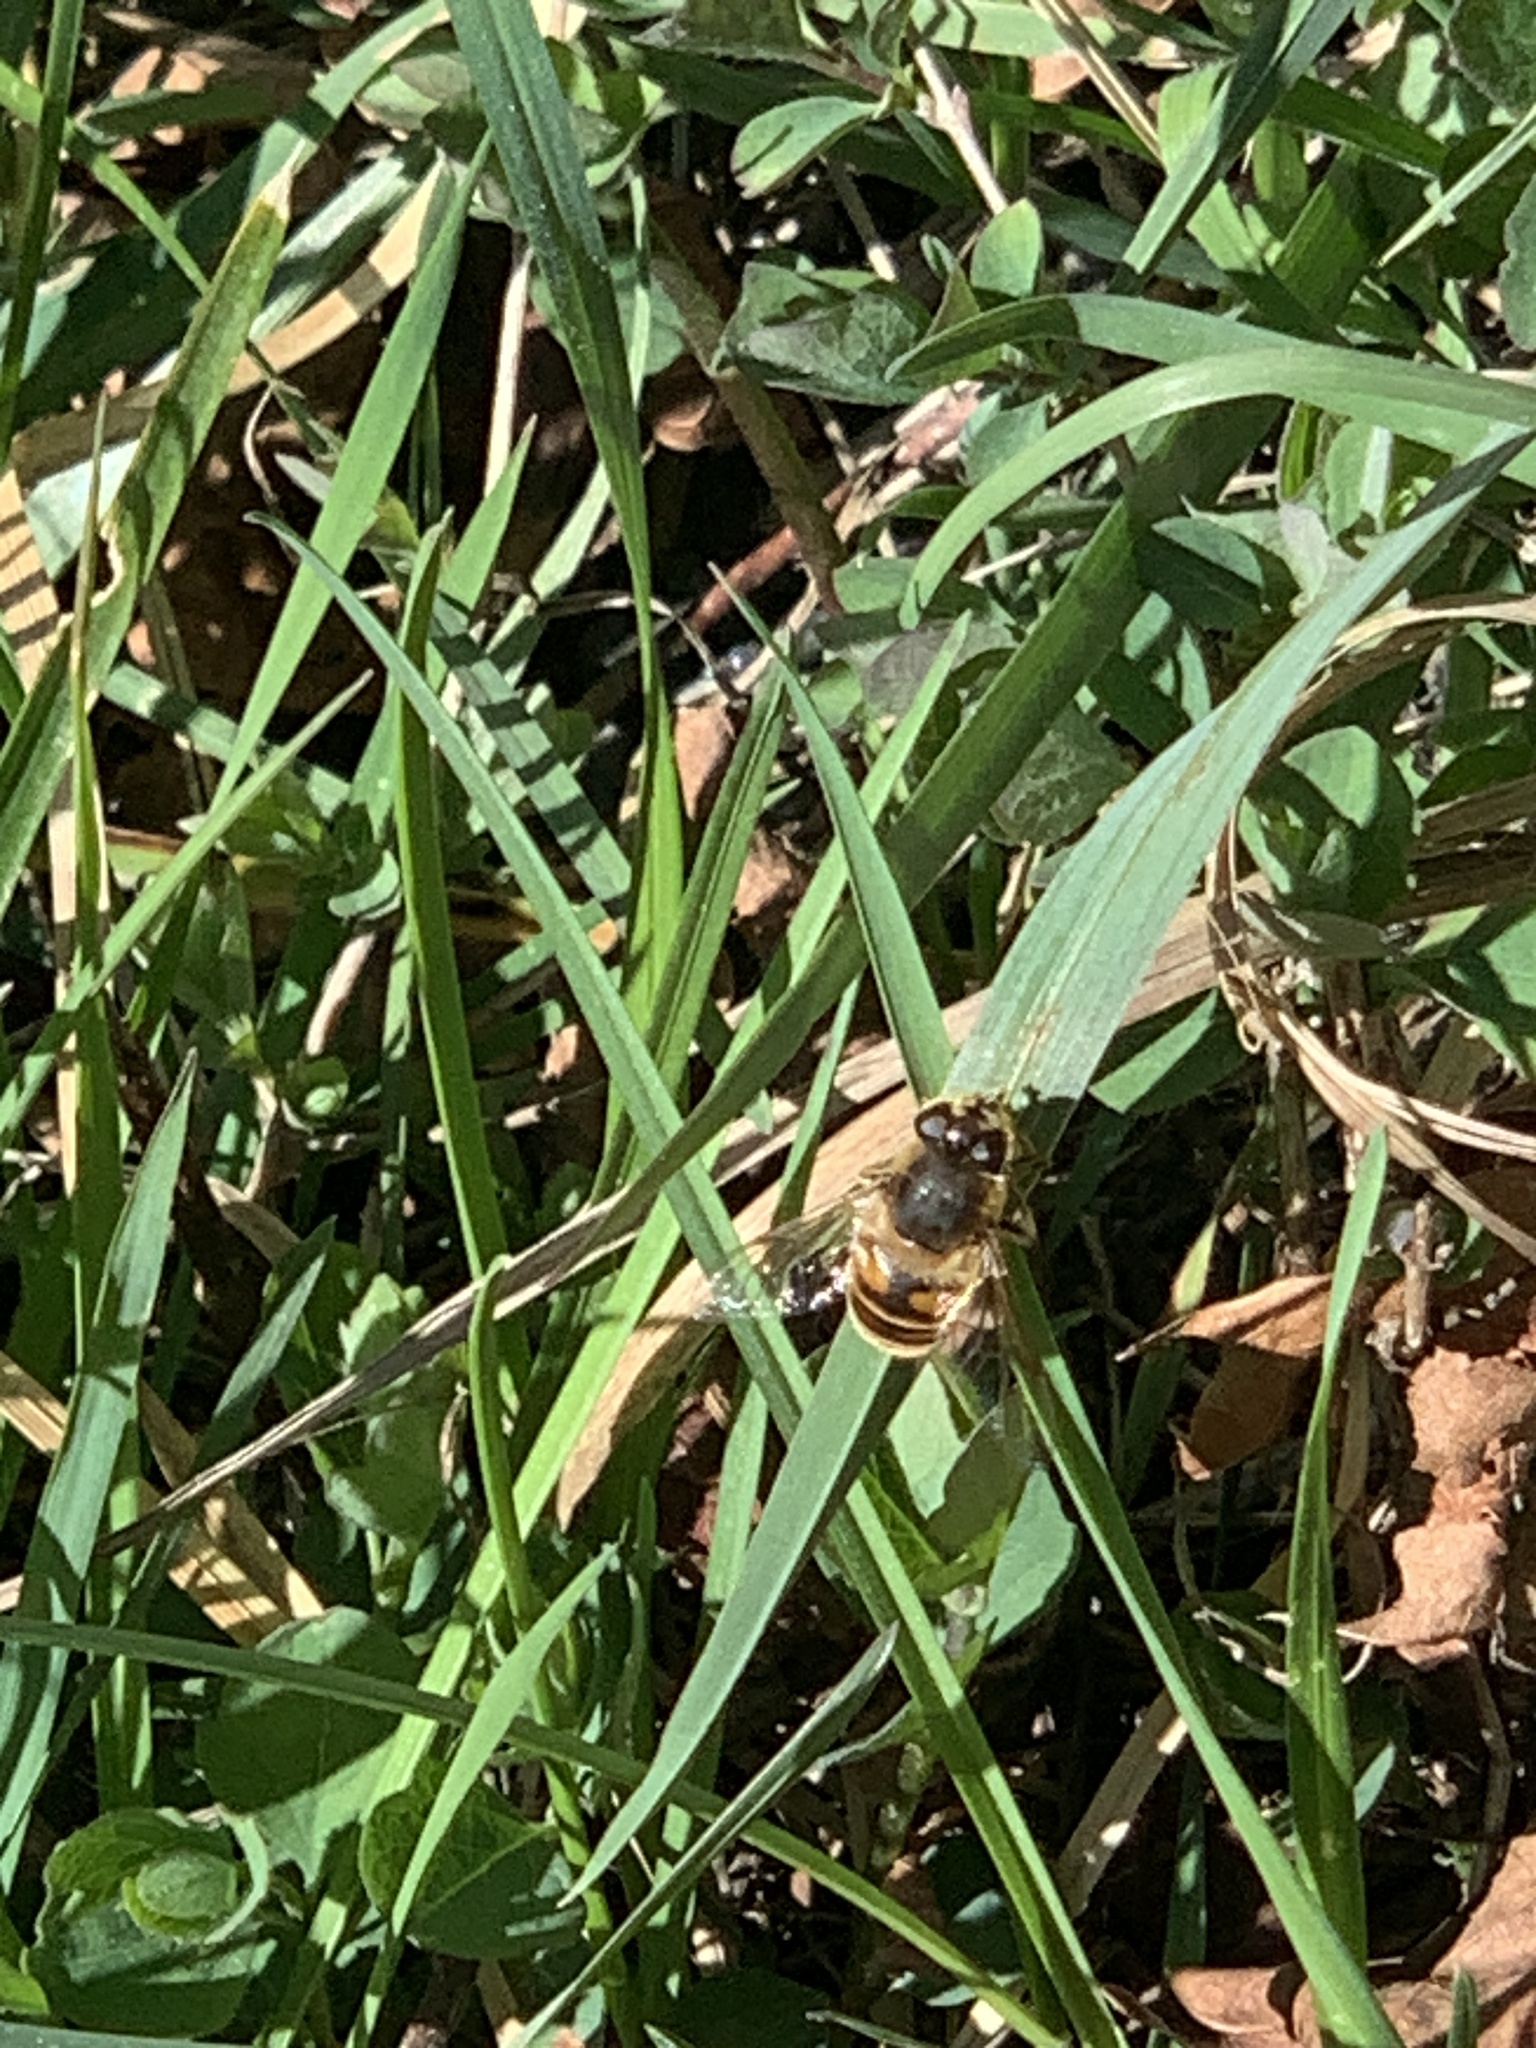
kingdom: Animalia
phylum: Arthropoda
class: Insecta
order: Diptera
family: Syrphidae
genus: Eristalis
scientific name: Eristalis tenax
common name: Drone fly
